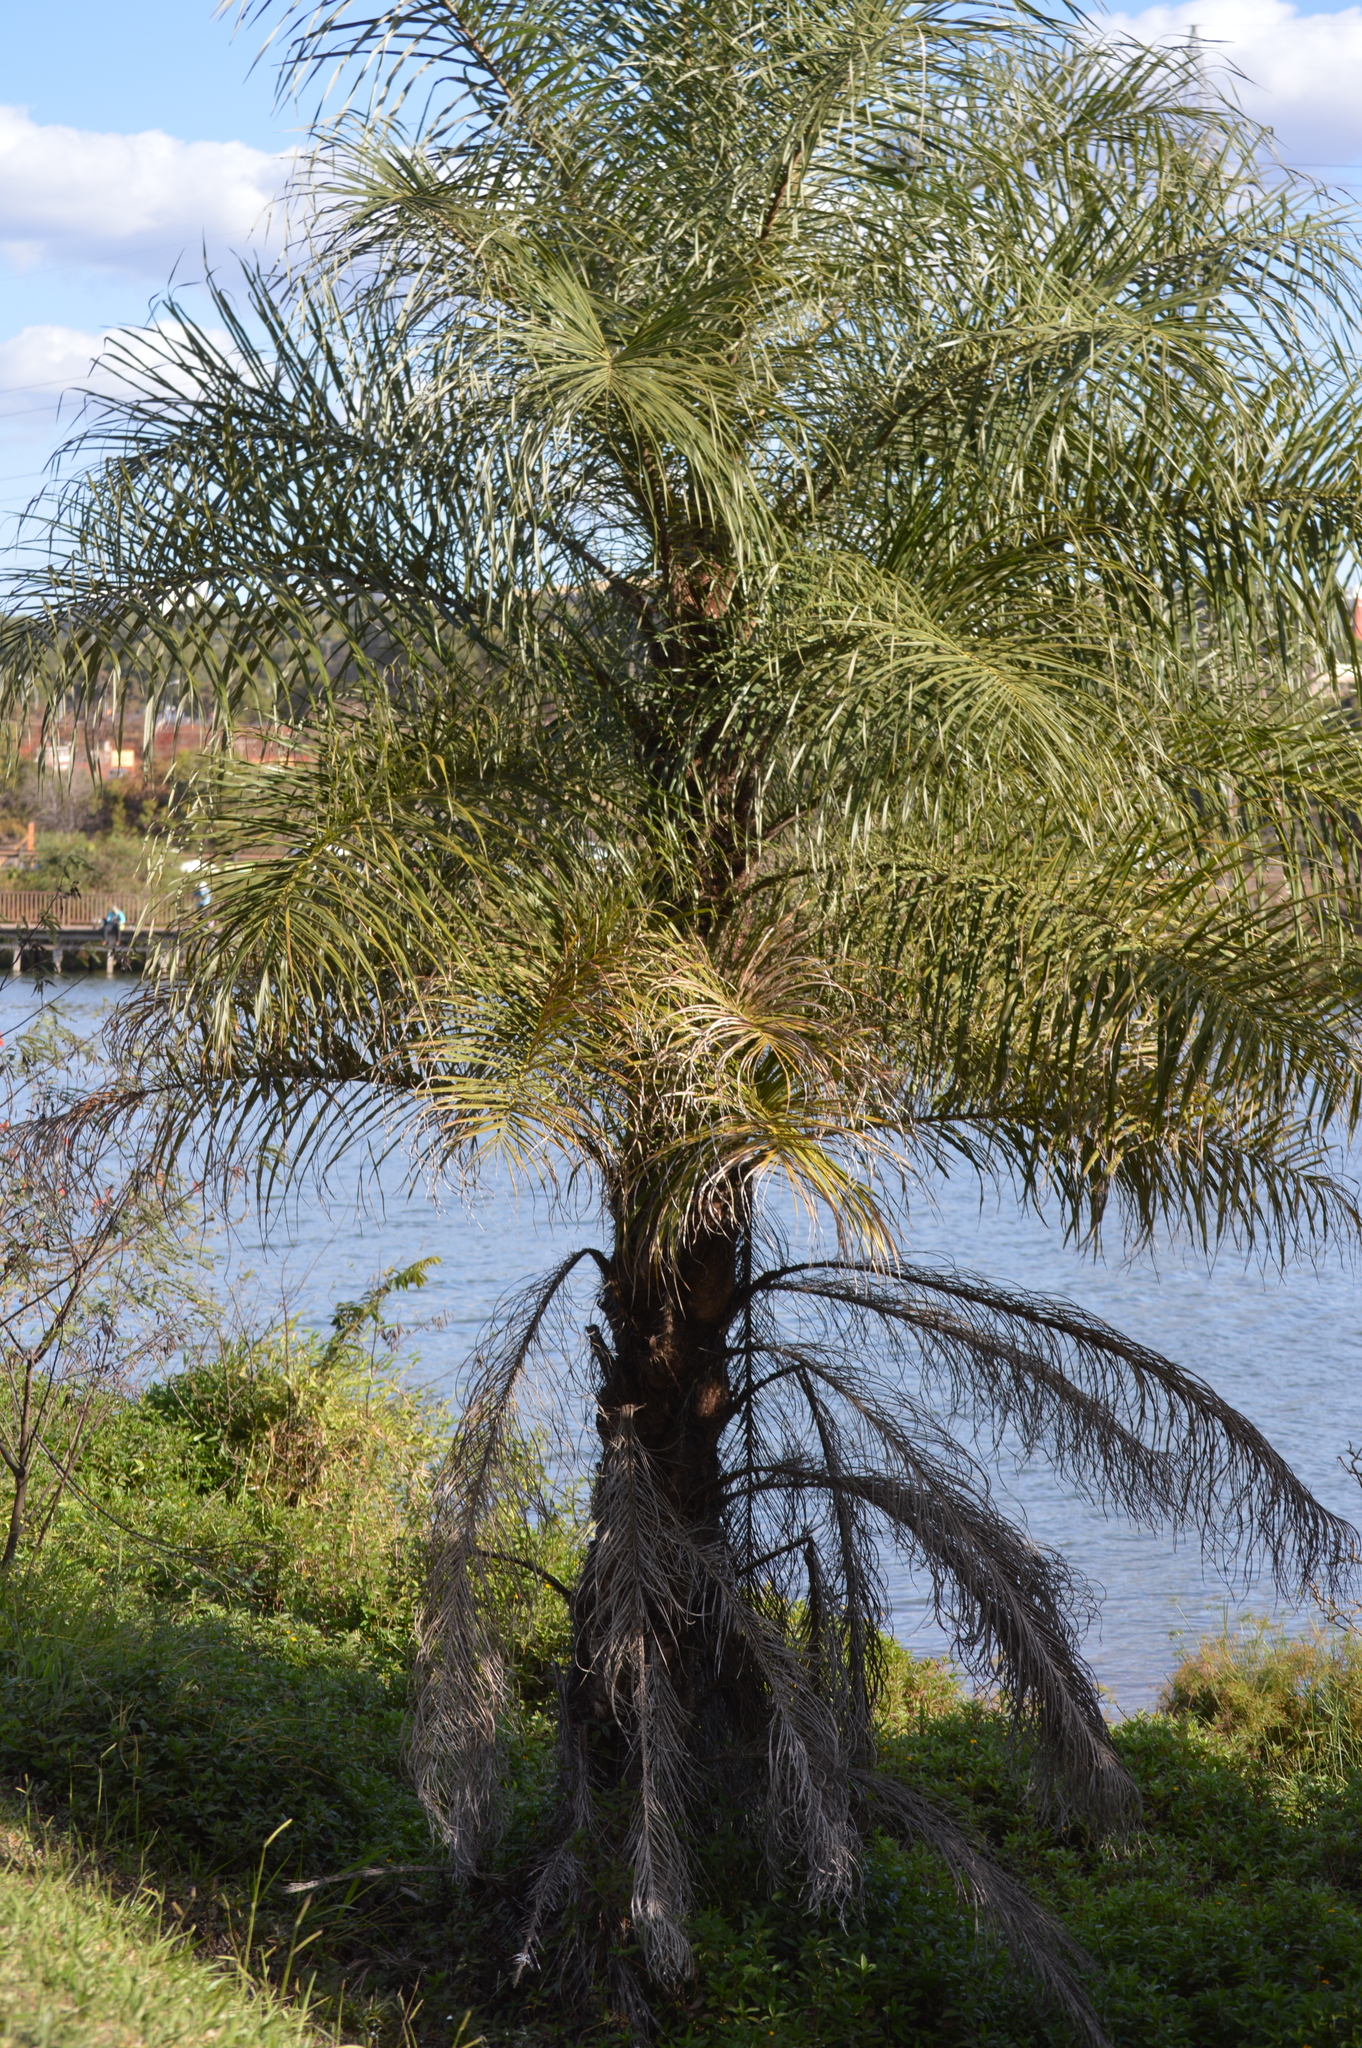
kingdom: Plantae
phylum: Tracheophyta
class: Liliopsida
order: Arecales
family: Arecaceae
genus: Acrocomia
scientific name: Acrocomia aculeata
